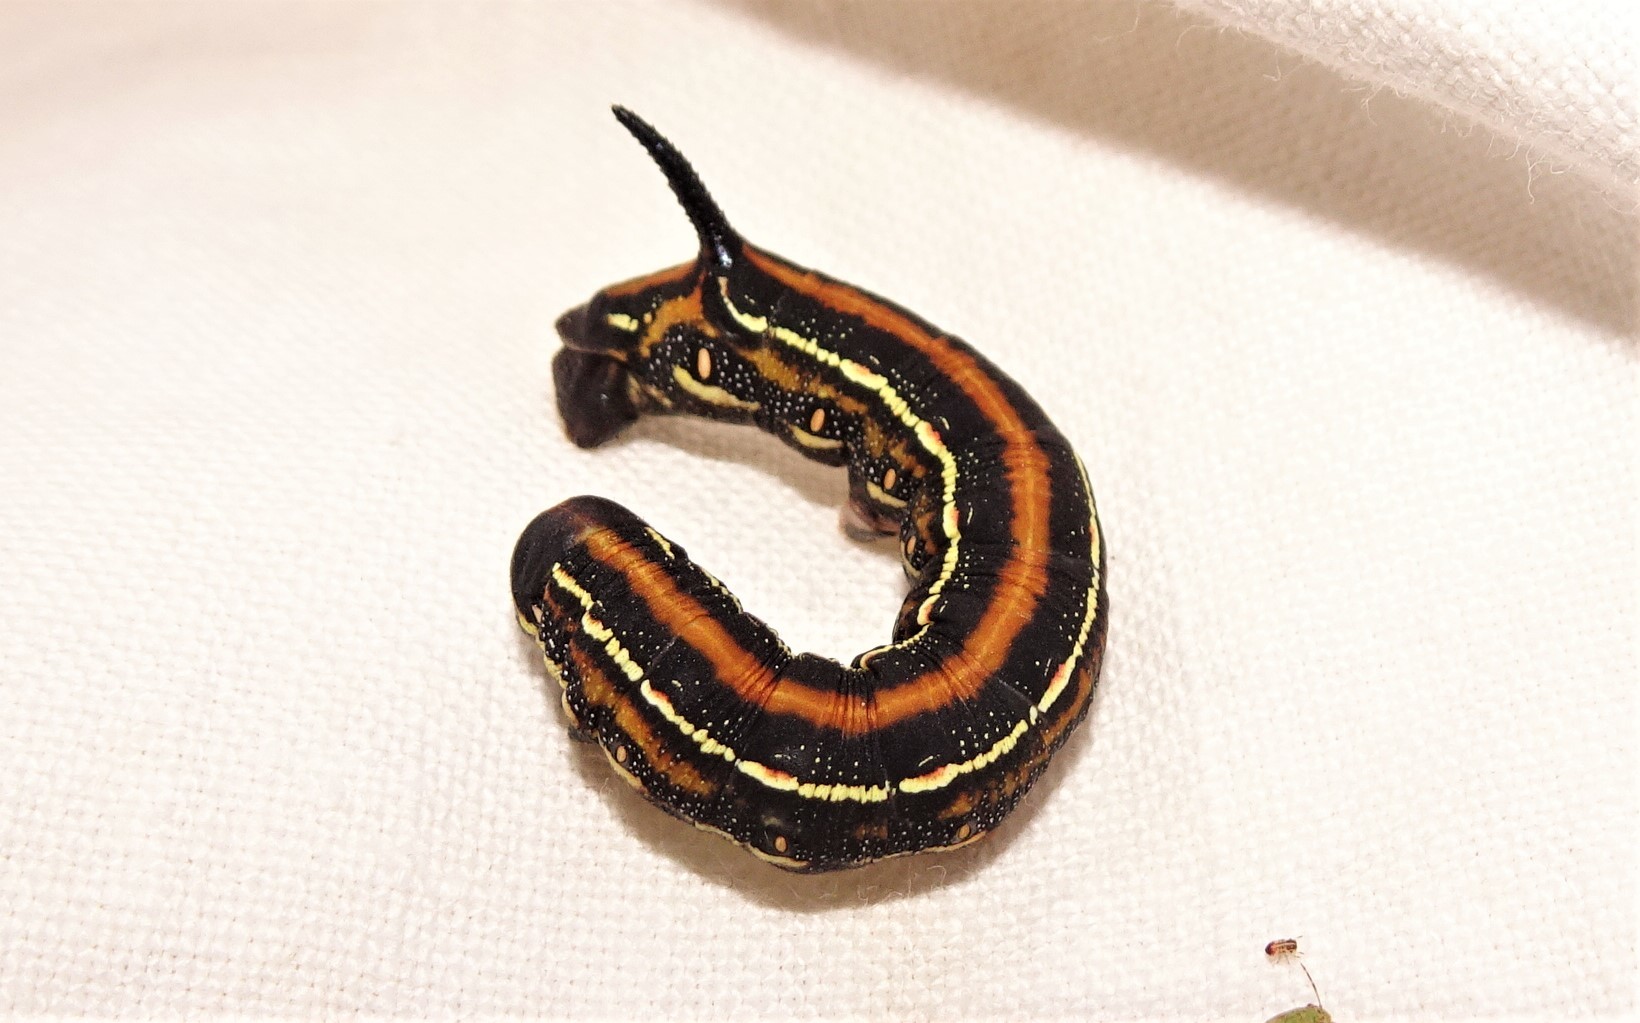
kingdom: Animalia
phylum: Arthropoda
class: Insecta
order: Lepidoptera
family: Sphingidae
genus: Coenotes
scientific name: Coenotes eremophilae
